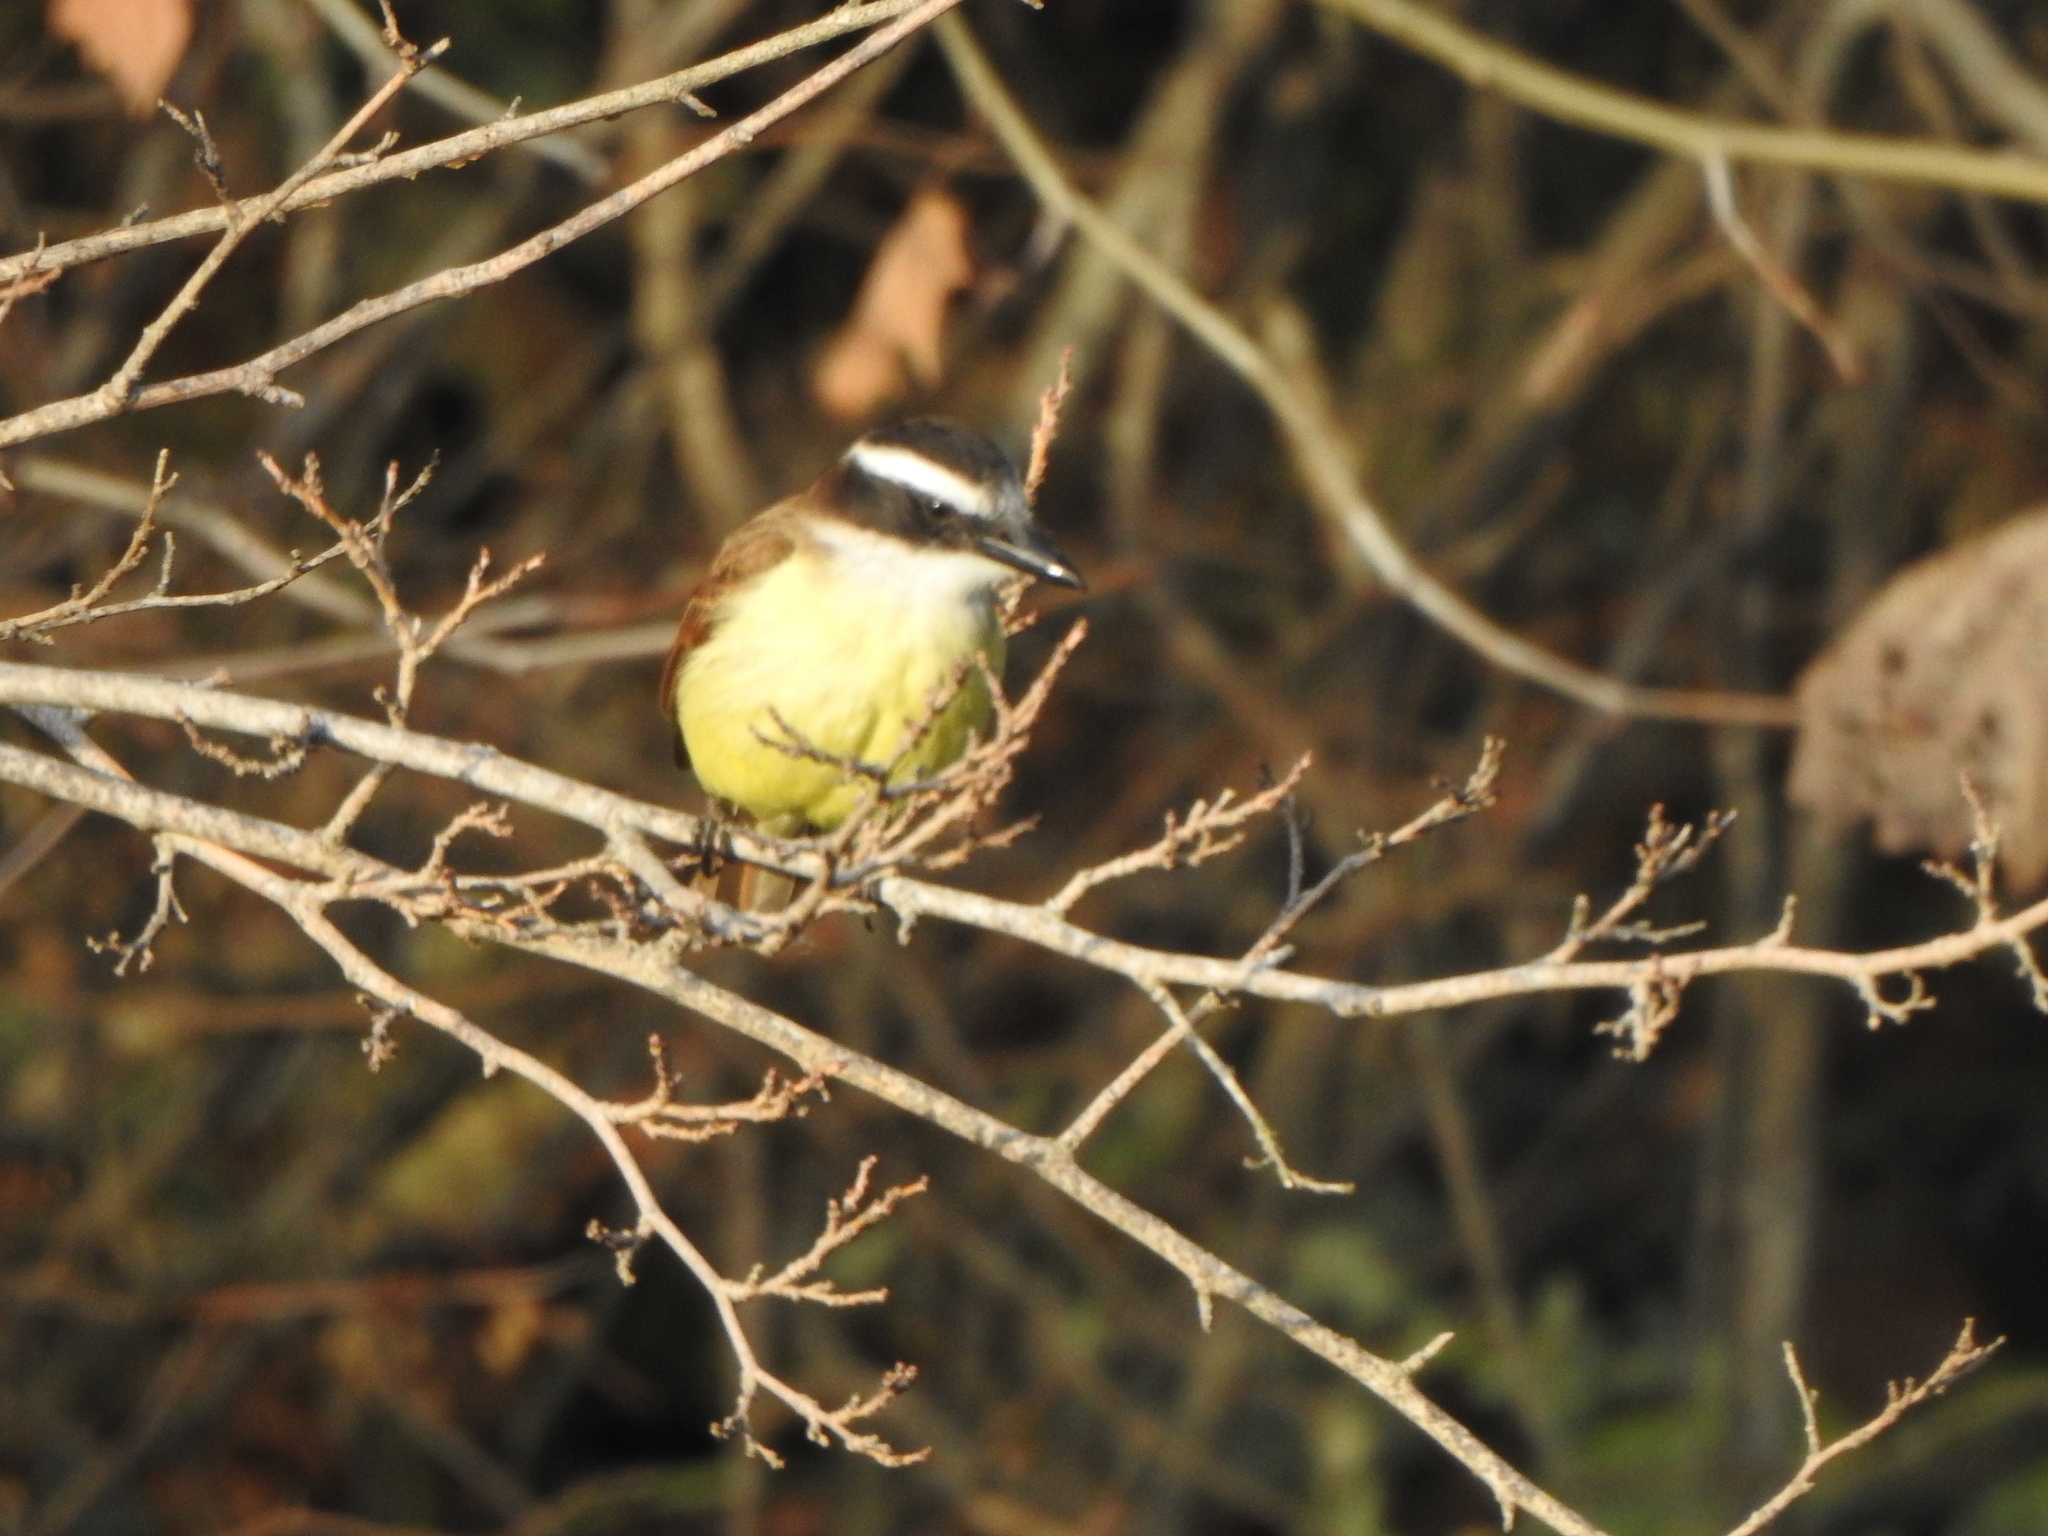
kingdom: Animalia
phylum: Chordata
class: Aves
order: Passeriformes
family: Tyrannidae
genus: Pitangus
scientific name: Pitangus sulphuratus
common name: Great kiskadee
